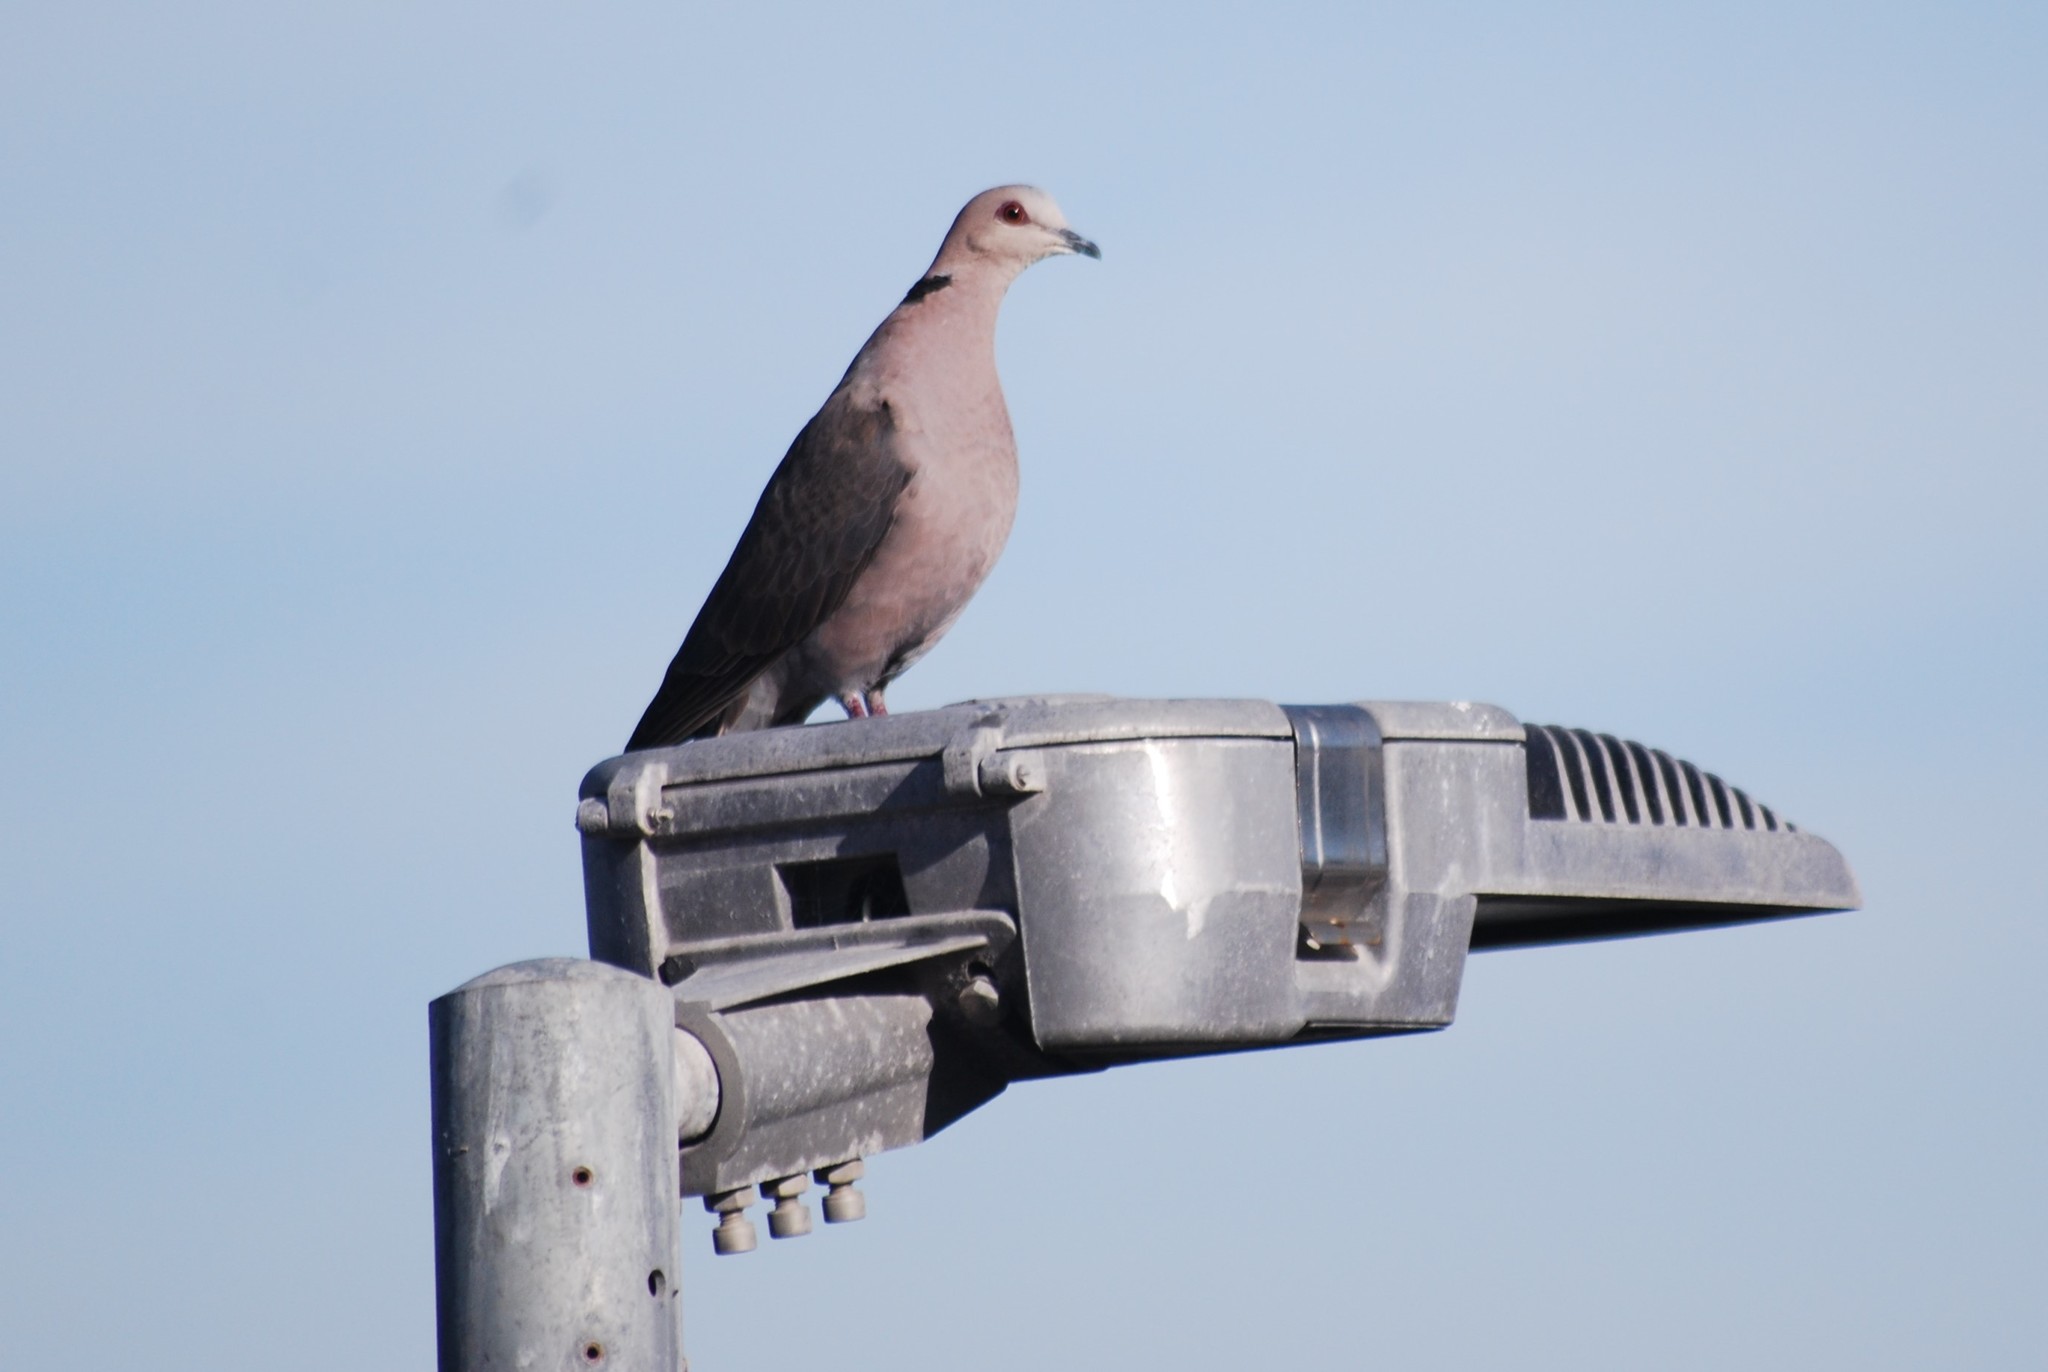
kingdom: Animalia
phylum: Chordata
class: Aves
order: Columbiformes
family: Columbidae
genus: Streptopelia
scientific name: Streptopelia semitorquata
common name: Red-eyed dove
